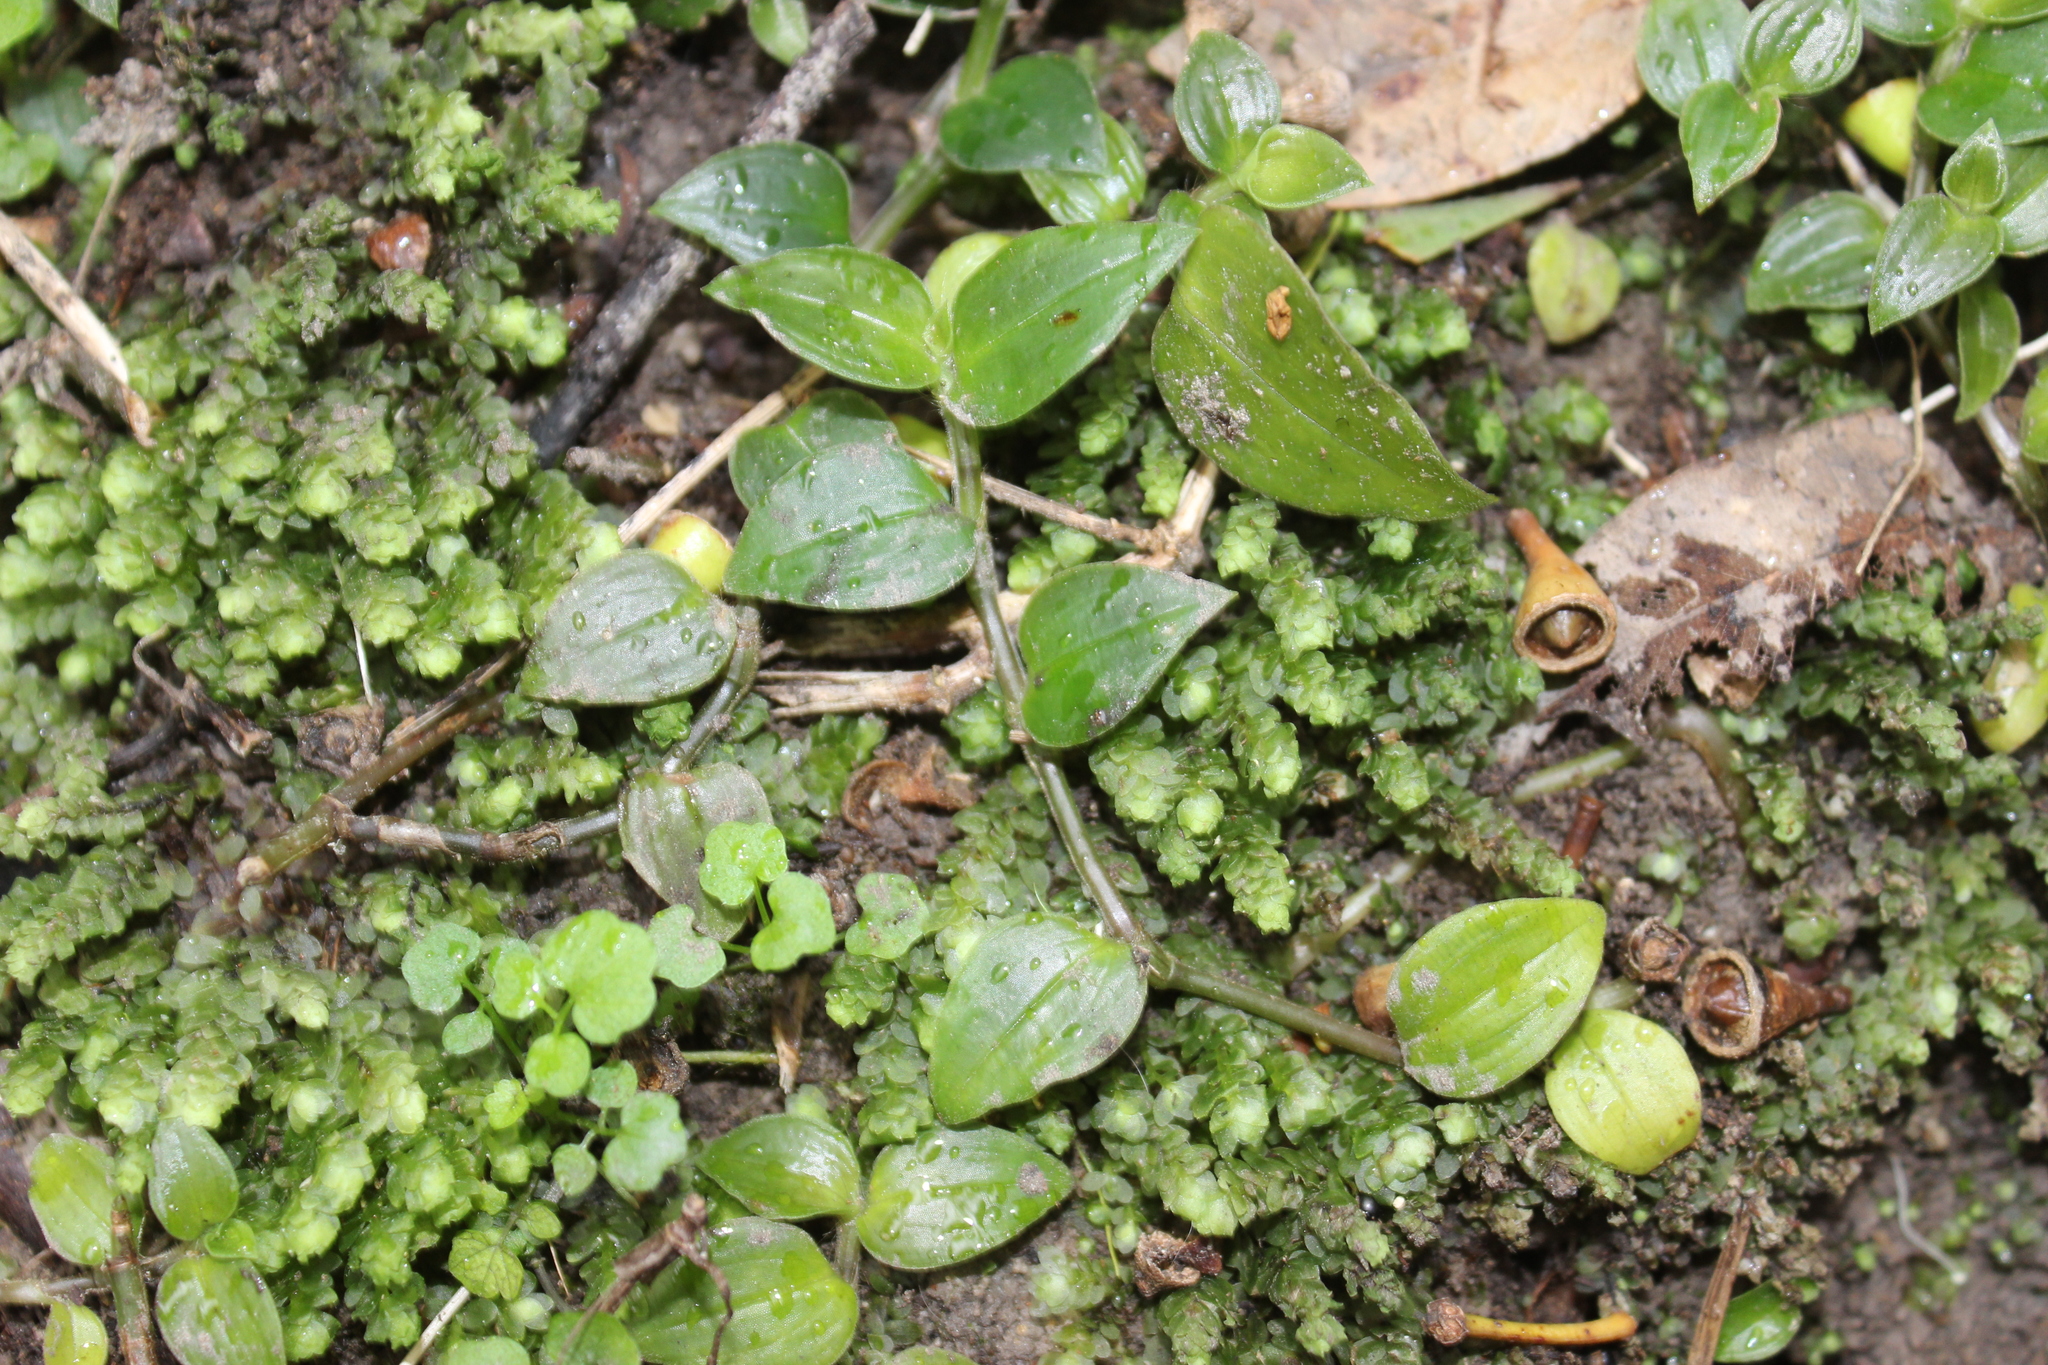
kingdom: Plantae
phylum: Tracheophyta
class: Liliopsida
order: Commelinales
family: Commelinaceae
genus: Tradescantia
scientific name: Tradescantia fluminensis
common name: Wandering-jew
